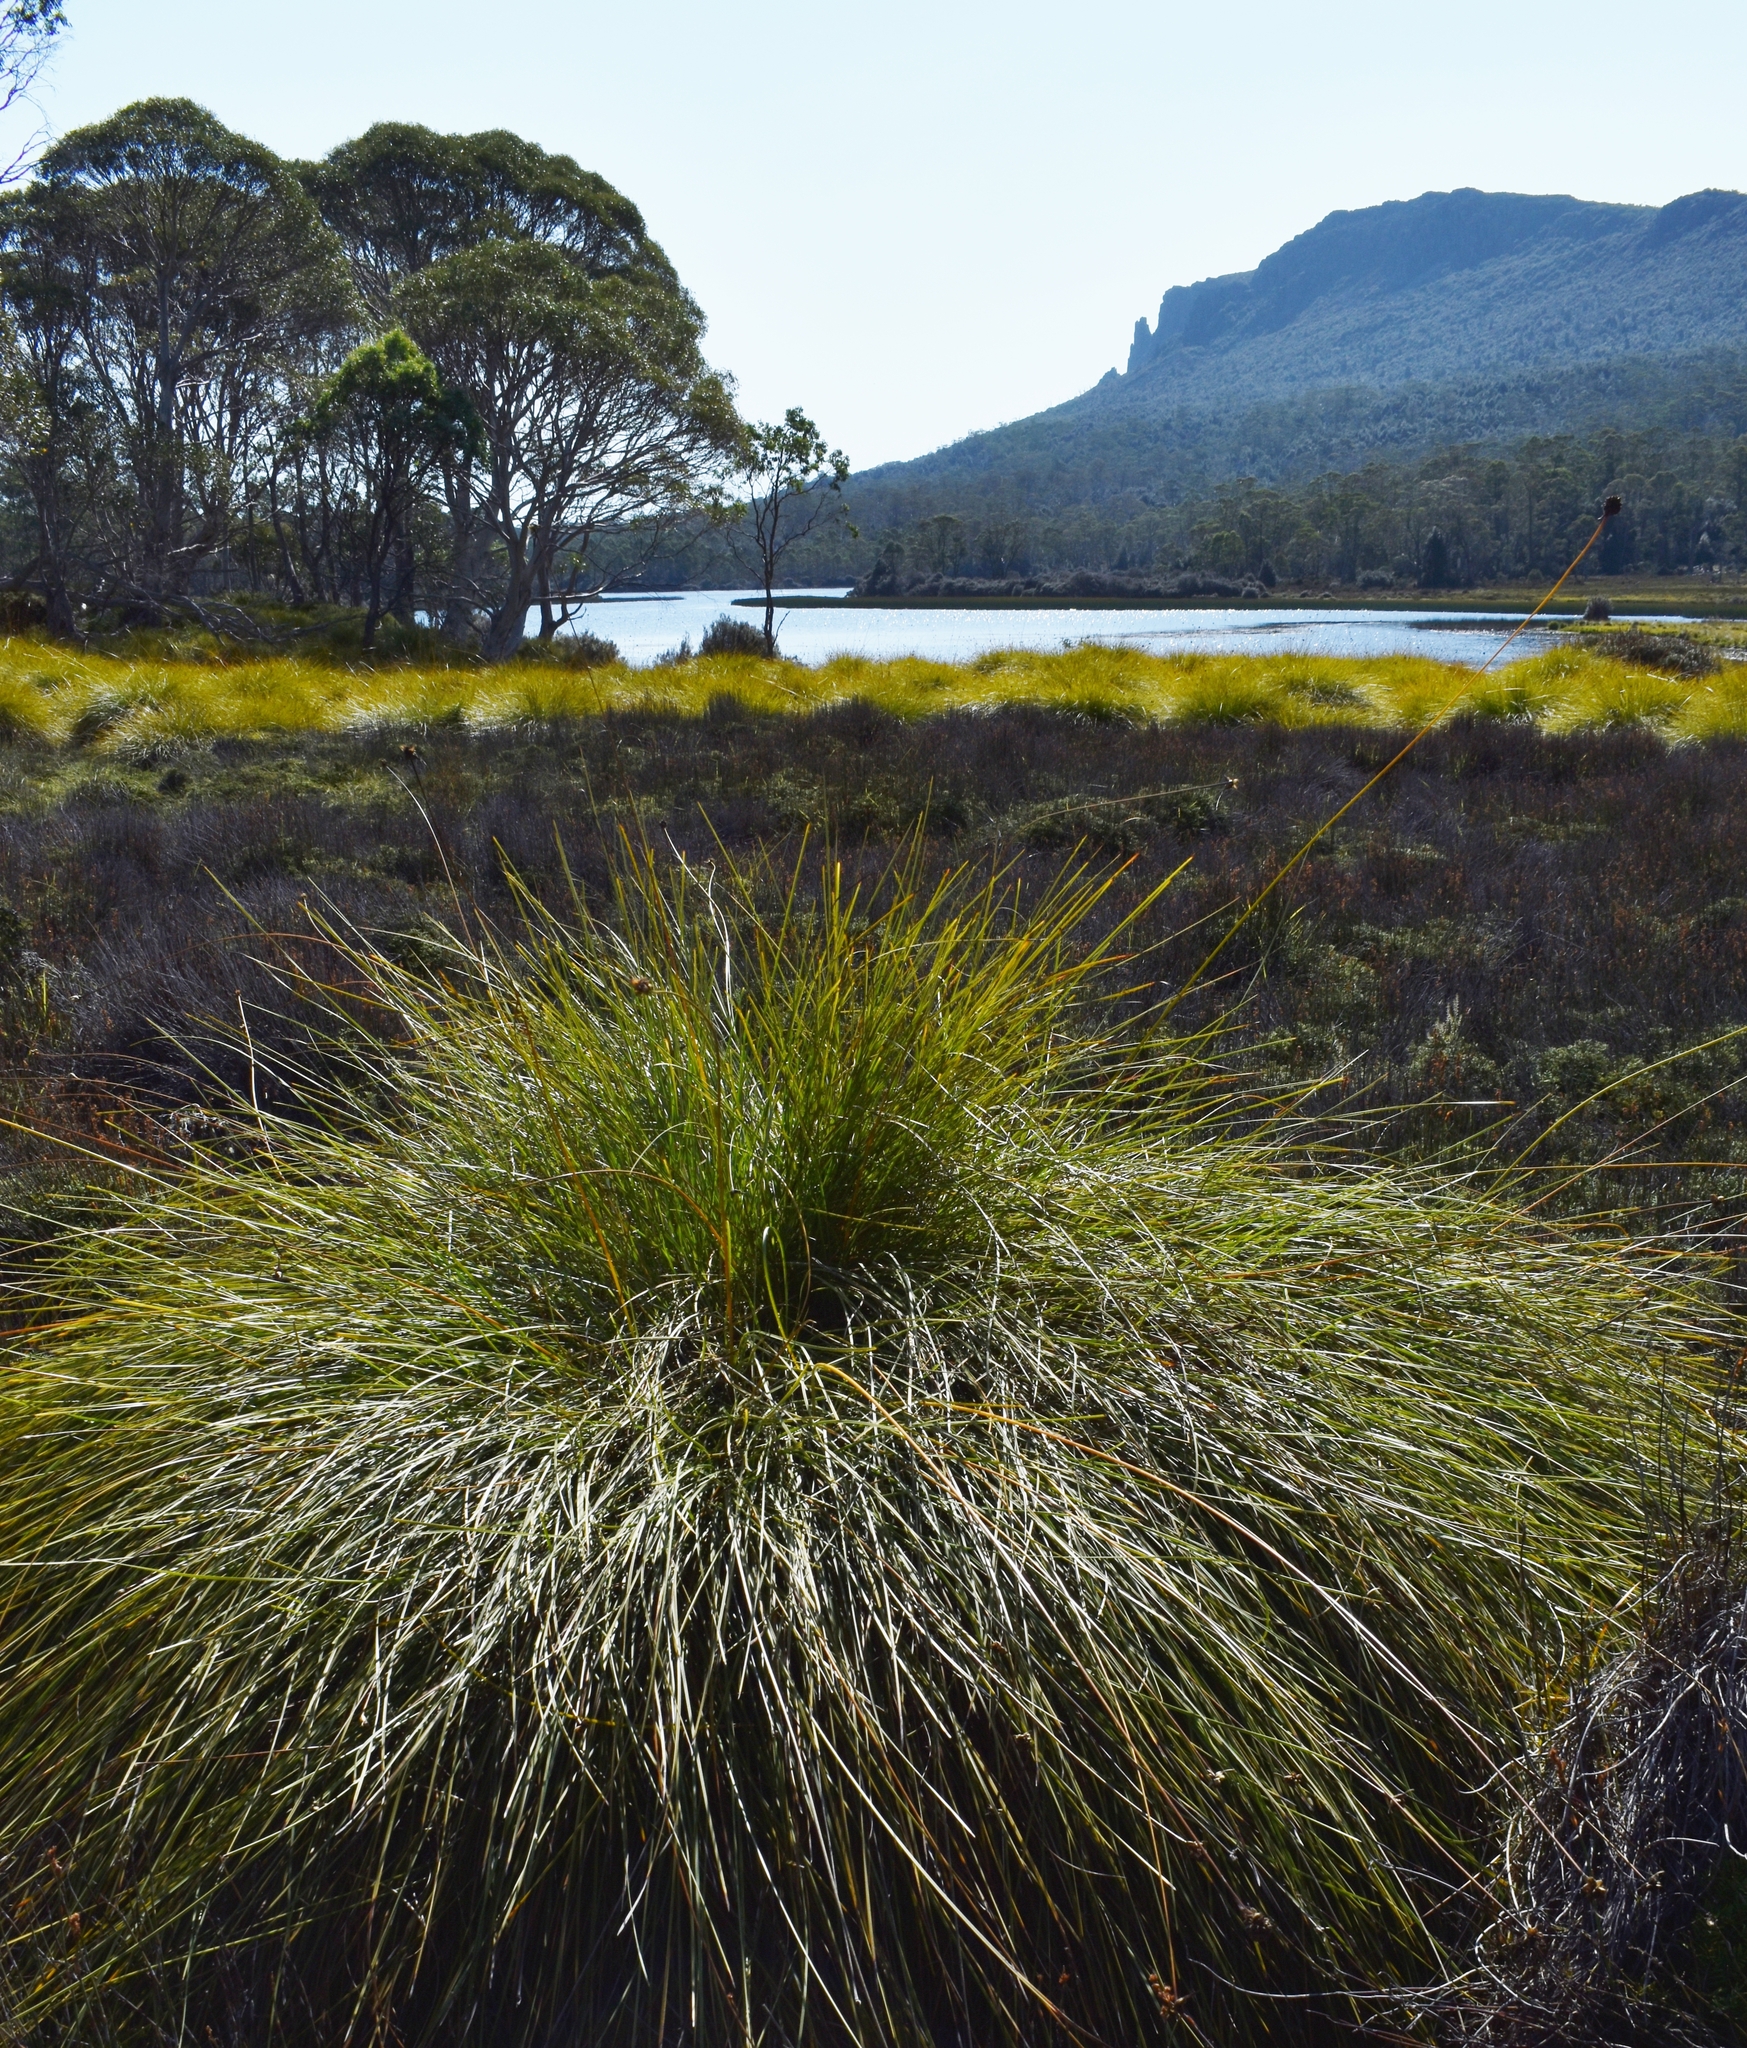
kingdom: Plantae
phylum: Tracheophyta
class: Liliopsida
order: Poales
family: Cyperaceae
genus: Gymnoschoenus
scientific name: Gymnoschoenus sphaerocephalus
